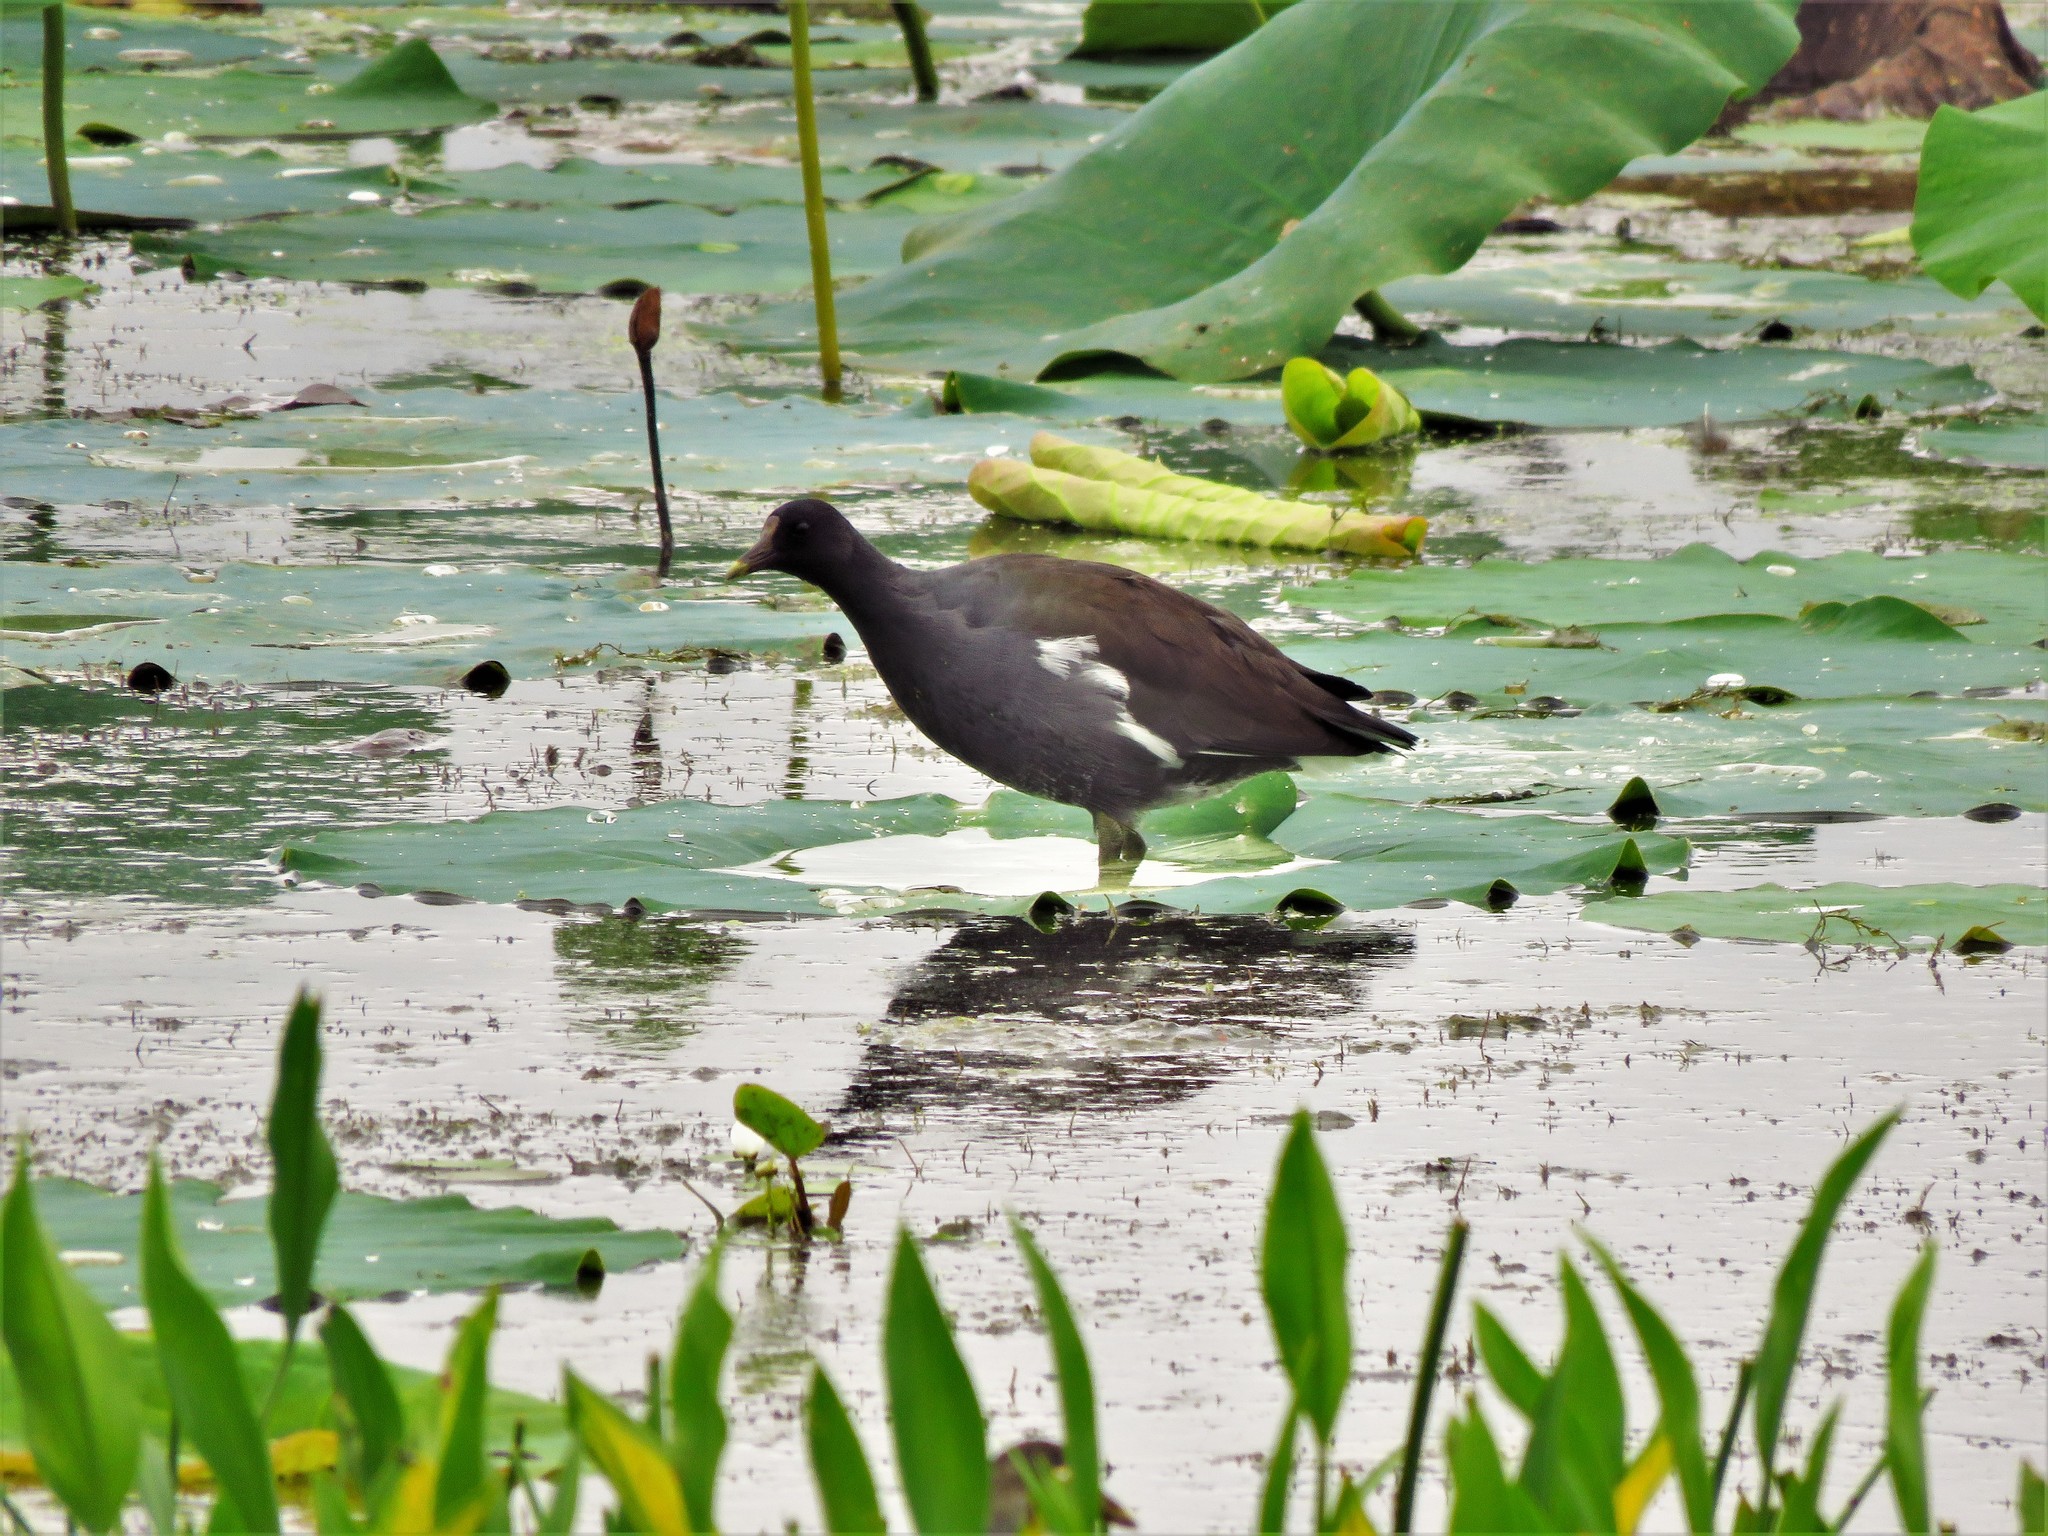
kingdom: Animalia
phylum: Chordata
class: Aves
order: Gruiformes
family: Rallidae
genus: Gallinula
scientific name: Gallinula chloropus
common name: Common moorhen
